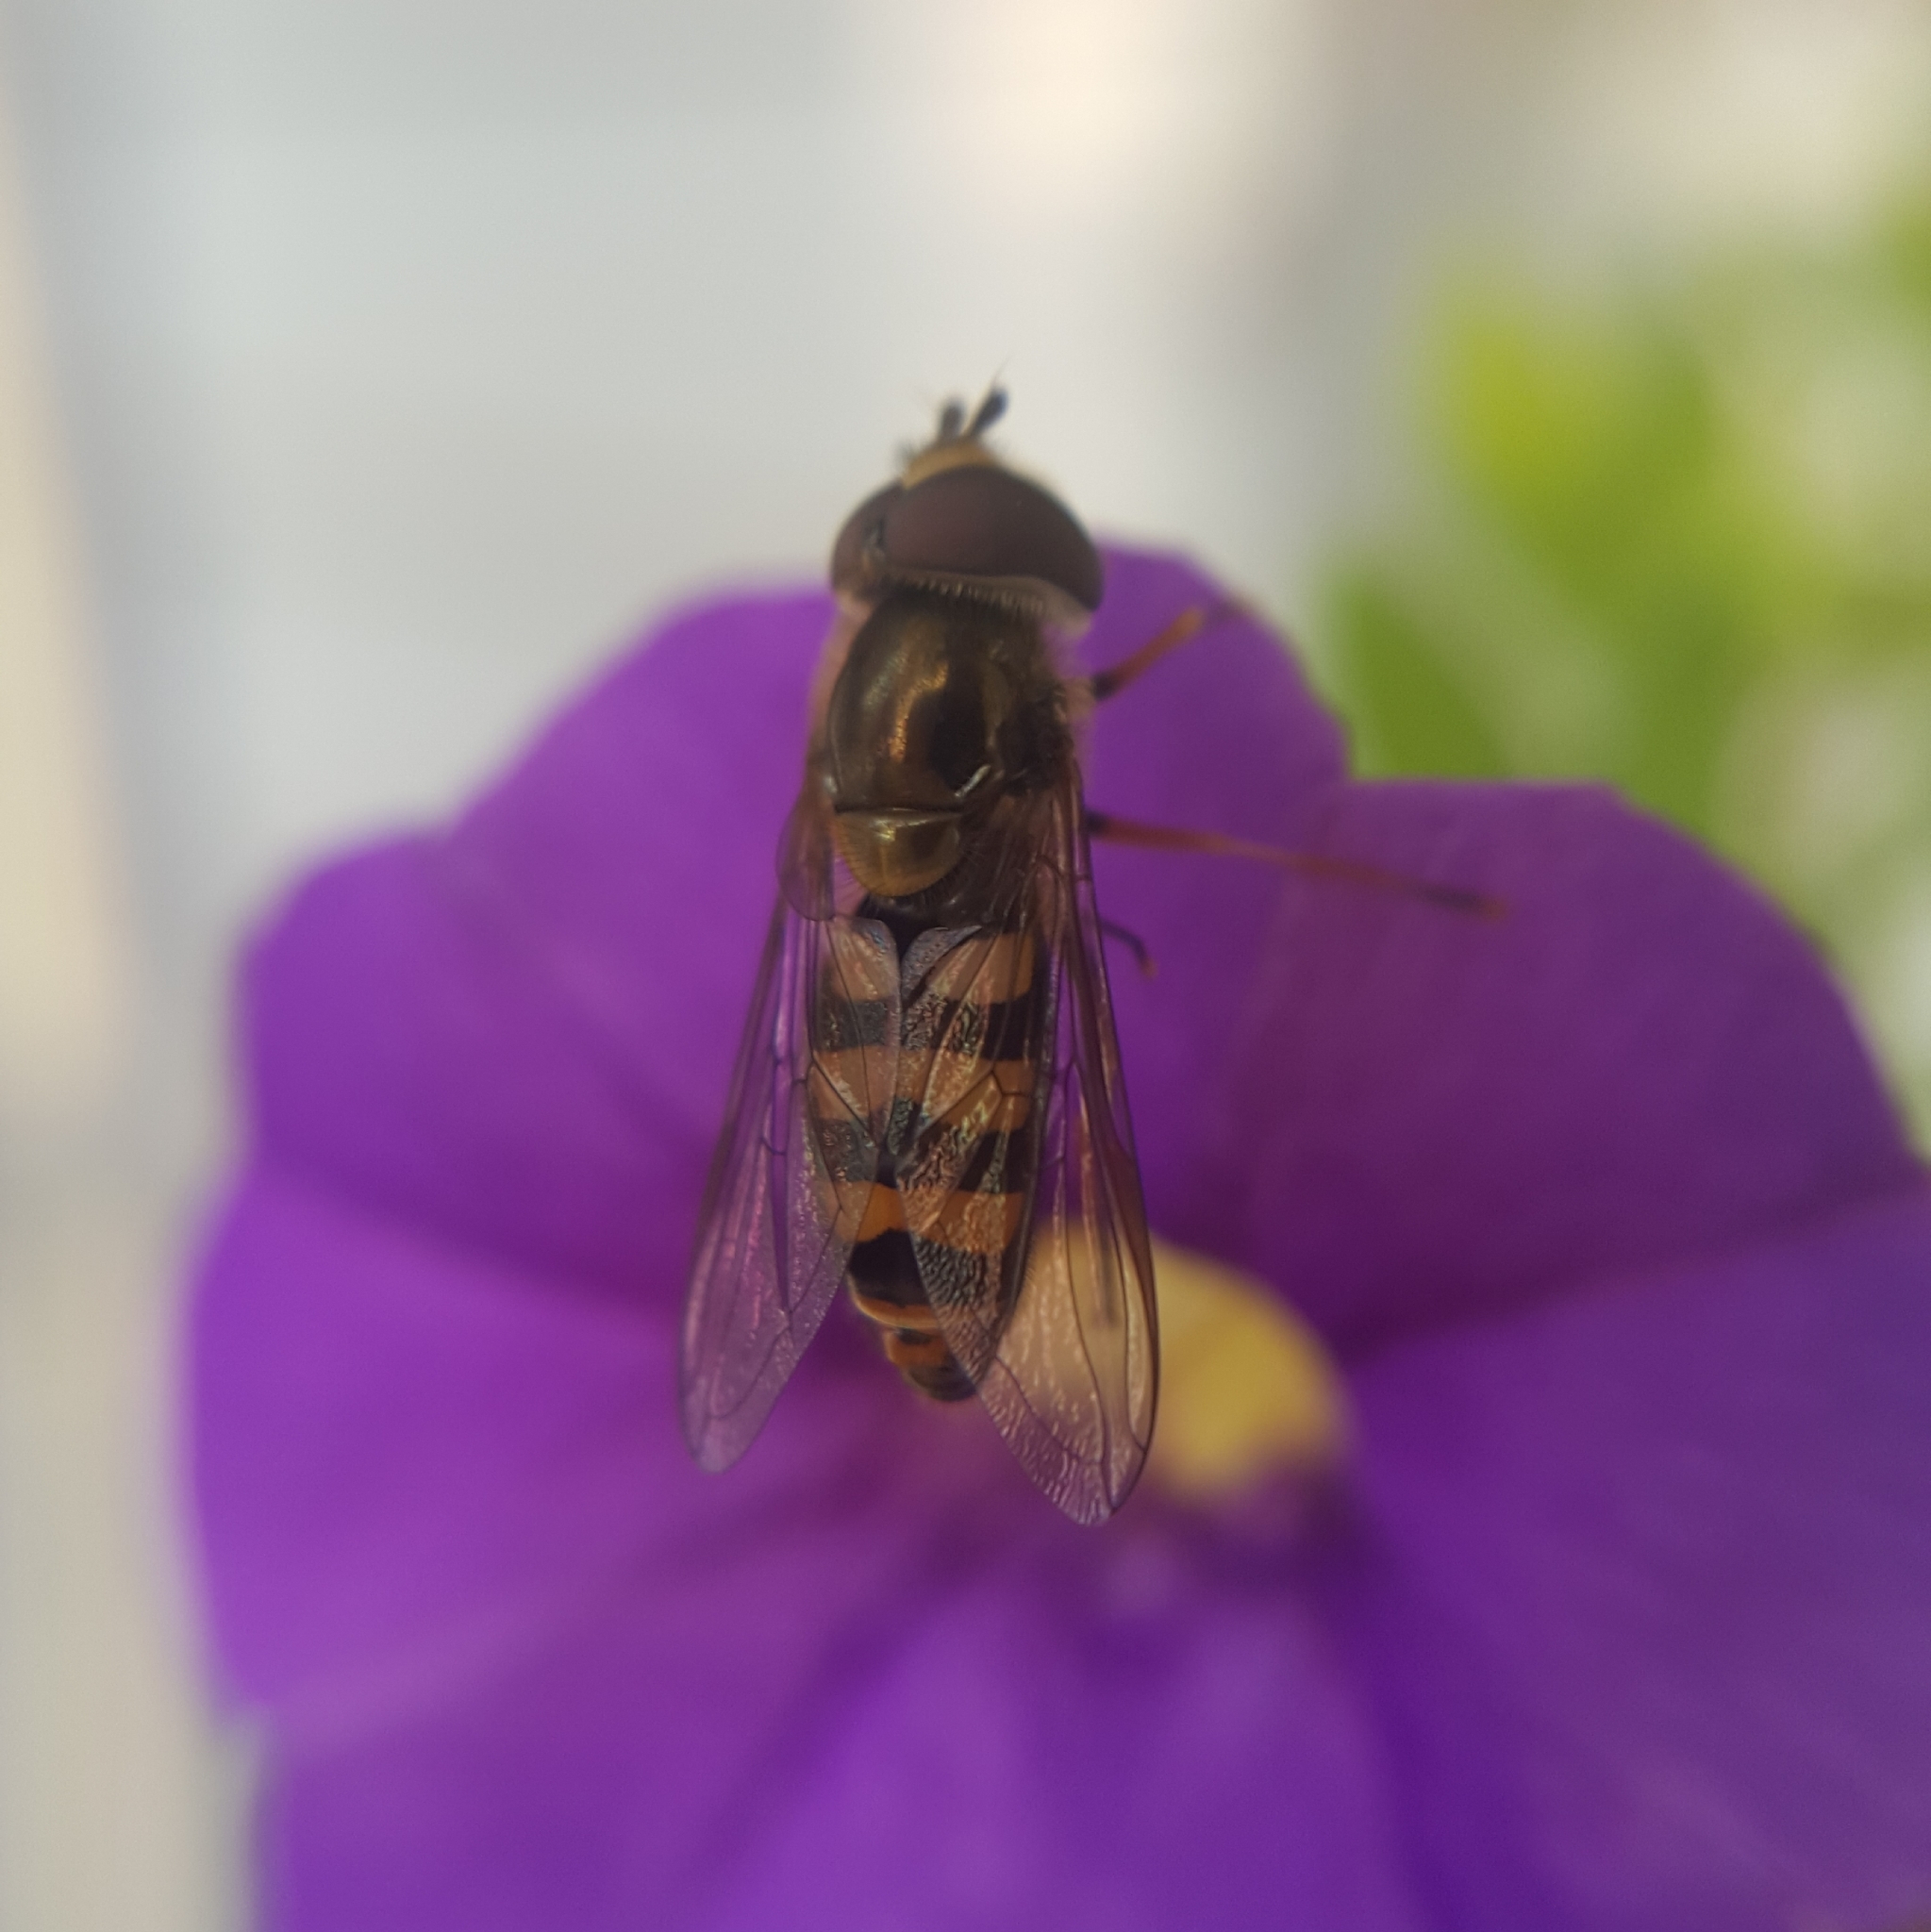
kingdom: Animalia
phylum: Arthropoda
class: Insecta
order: Diptera
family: Syrphidae
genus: Eupeodes
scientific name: Eupeodes fumipennis
